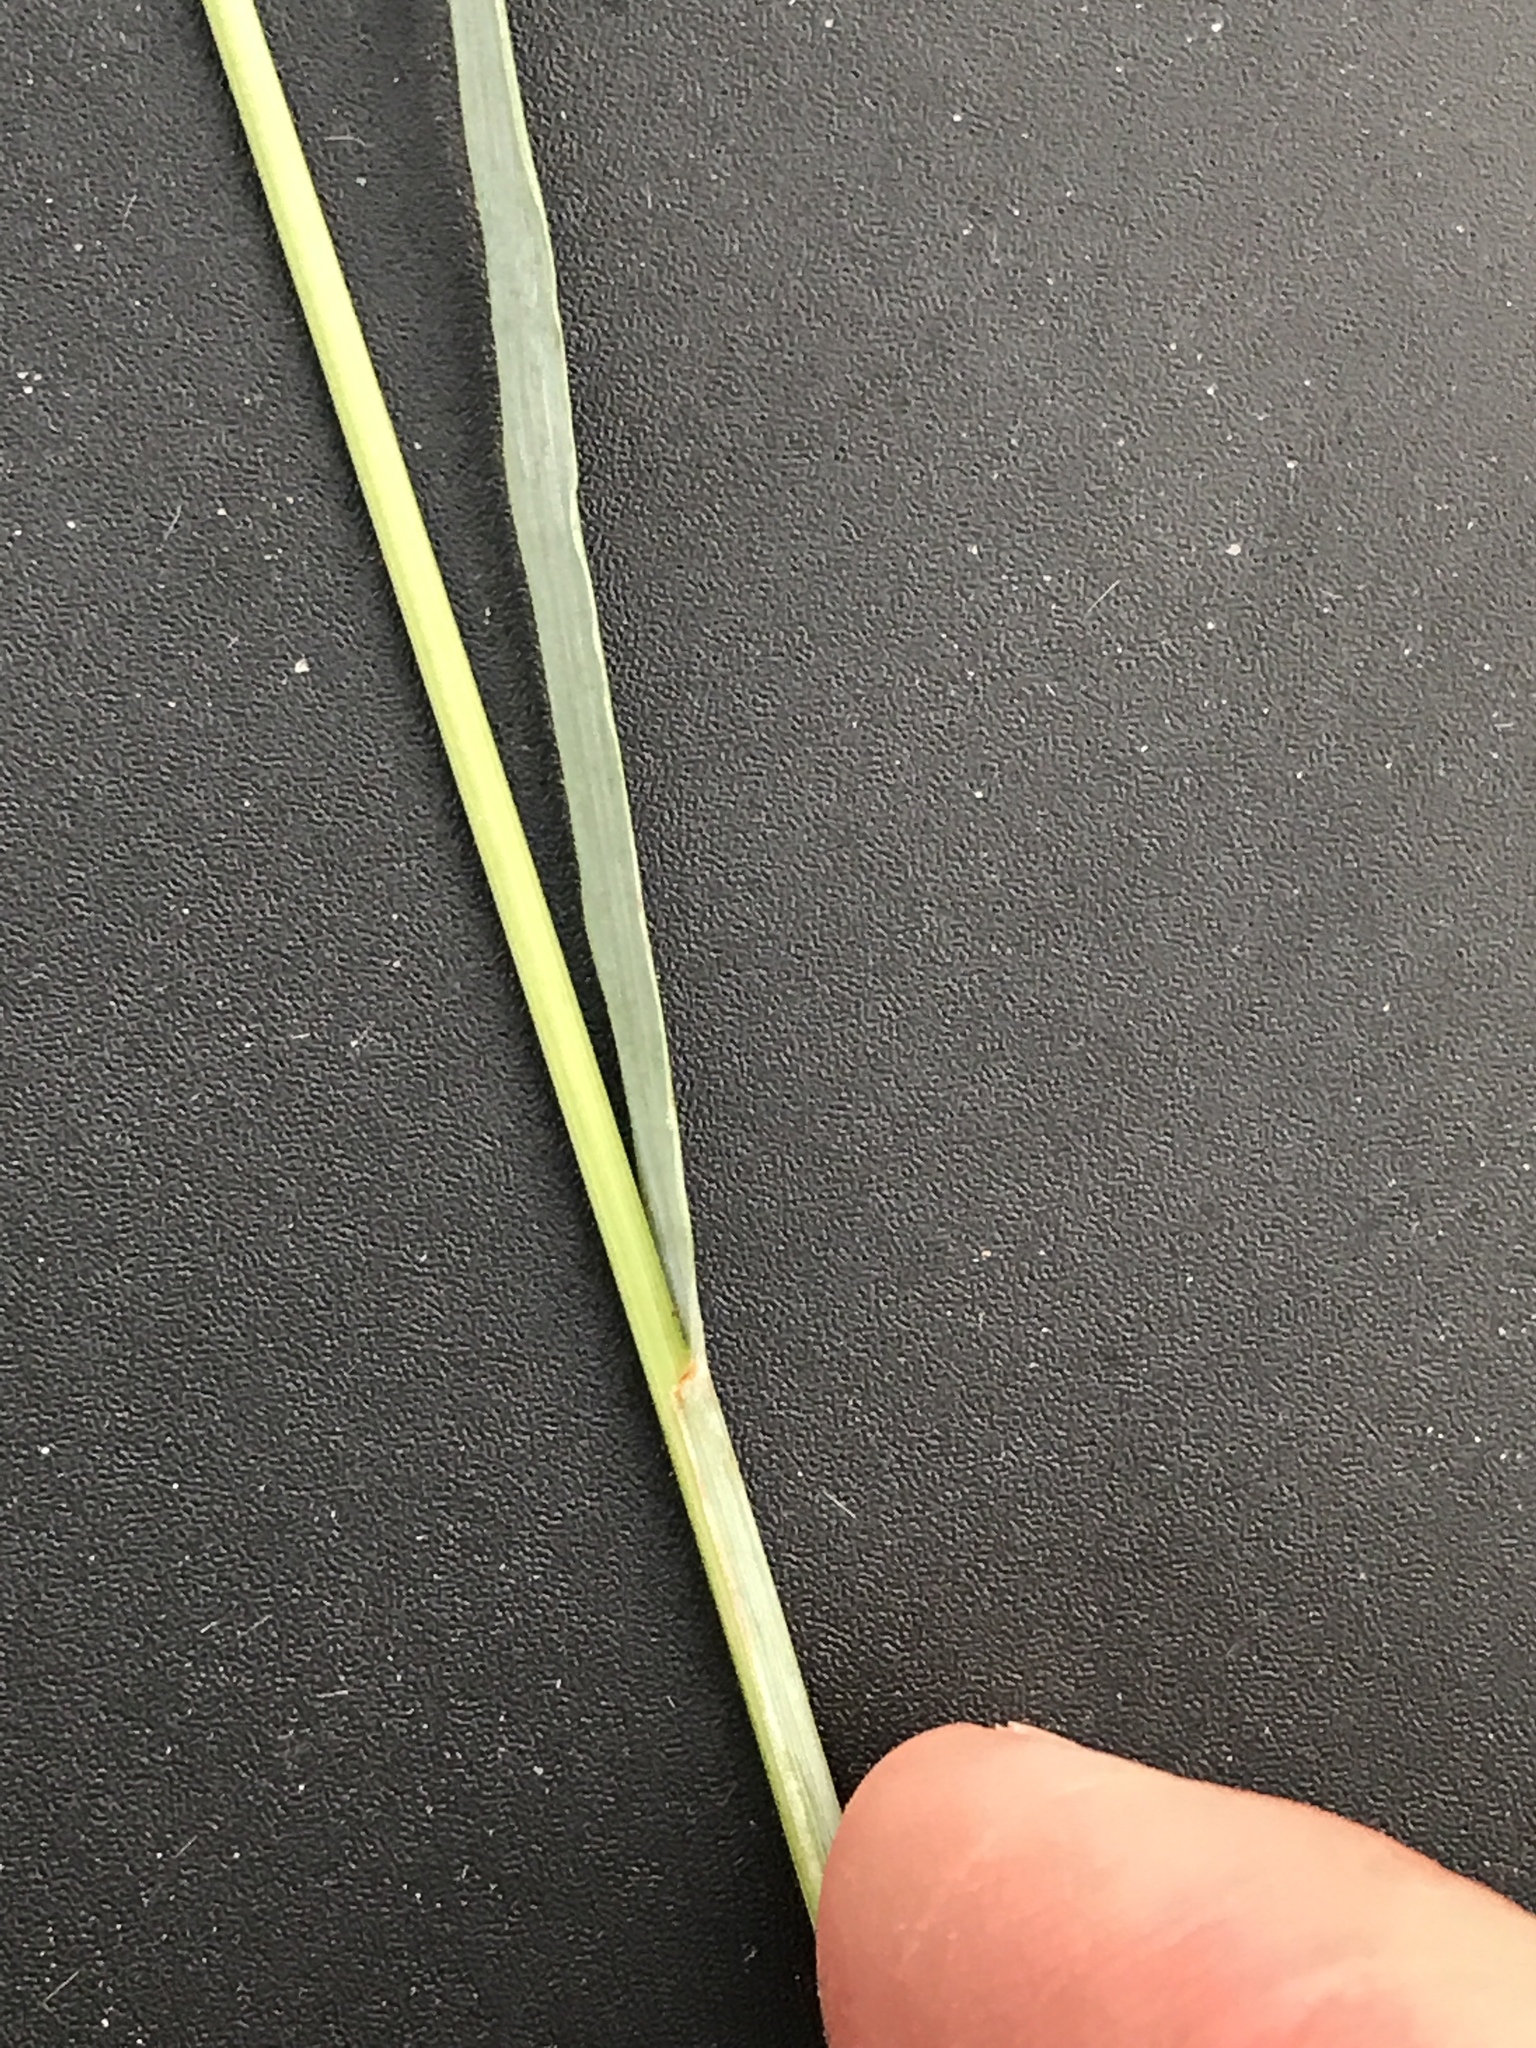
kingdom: Plantae
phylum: Tracheophyta
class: Liliopsida
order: Poales
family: Poaceae
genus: Eragrostis
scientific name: Eragrostis secundiflora
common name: Red love grass
